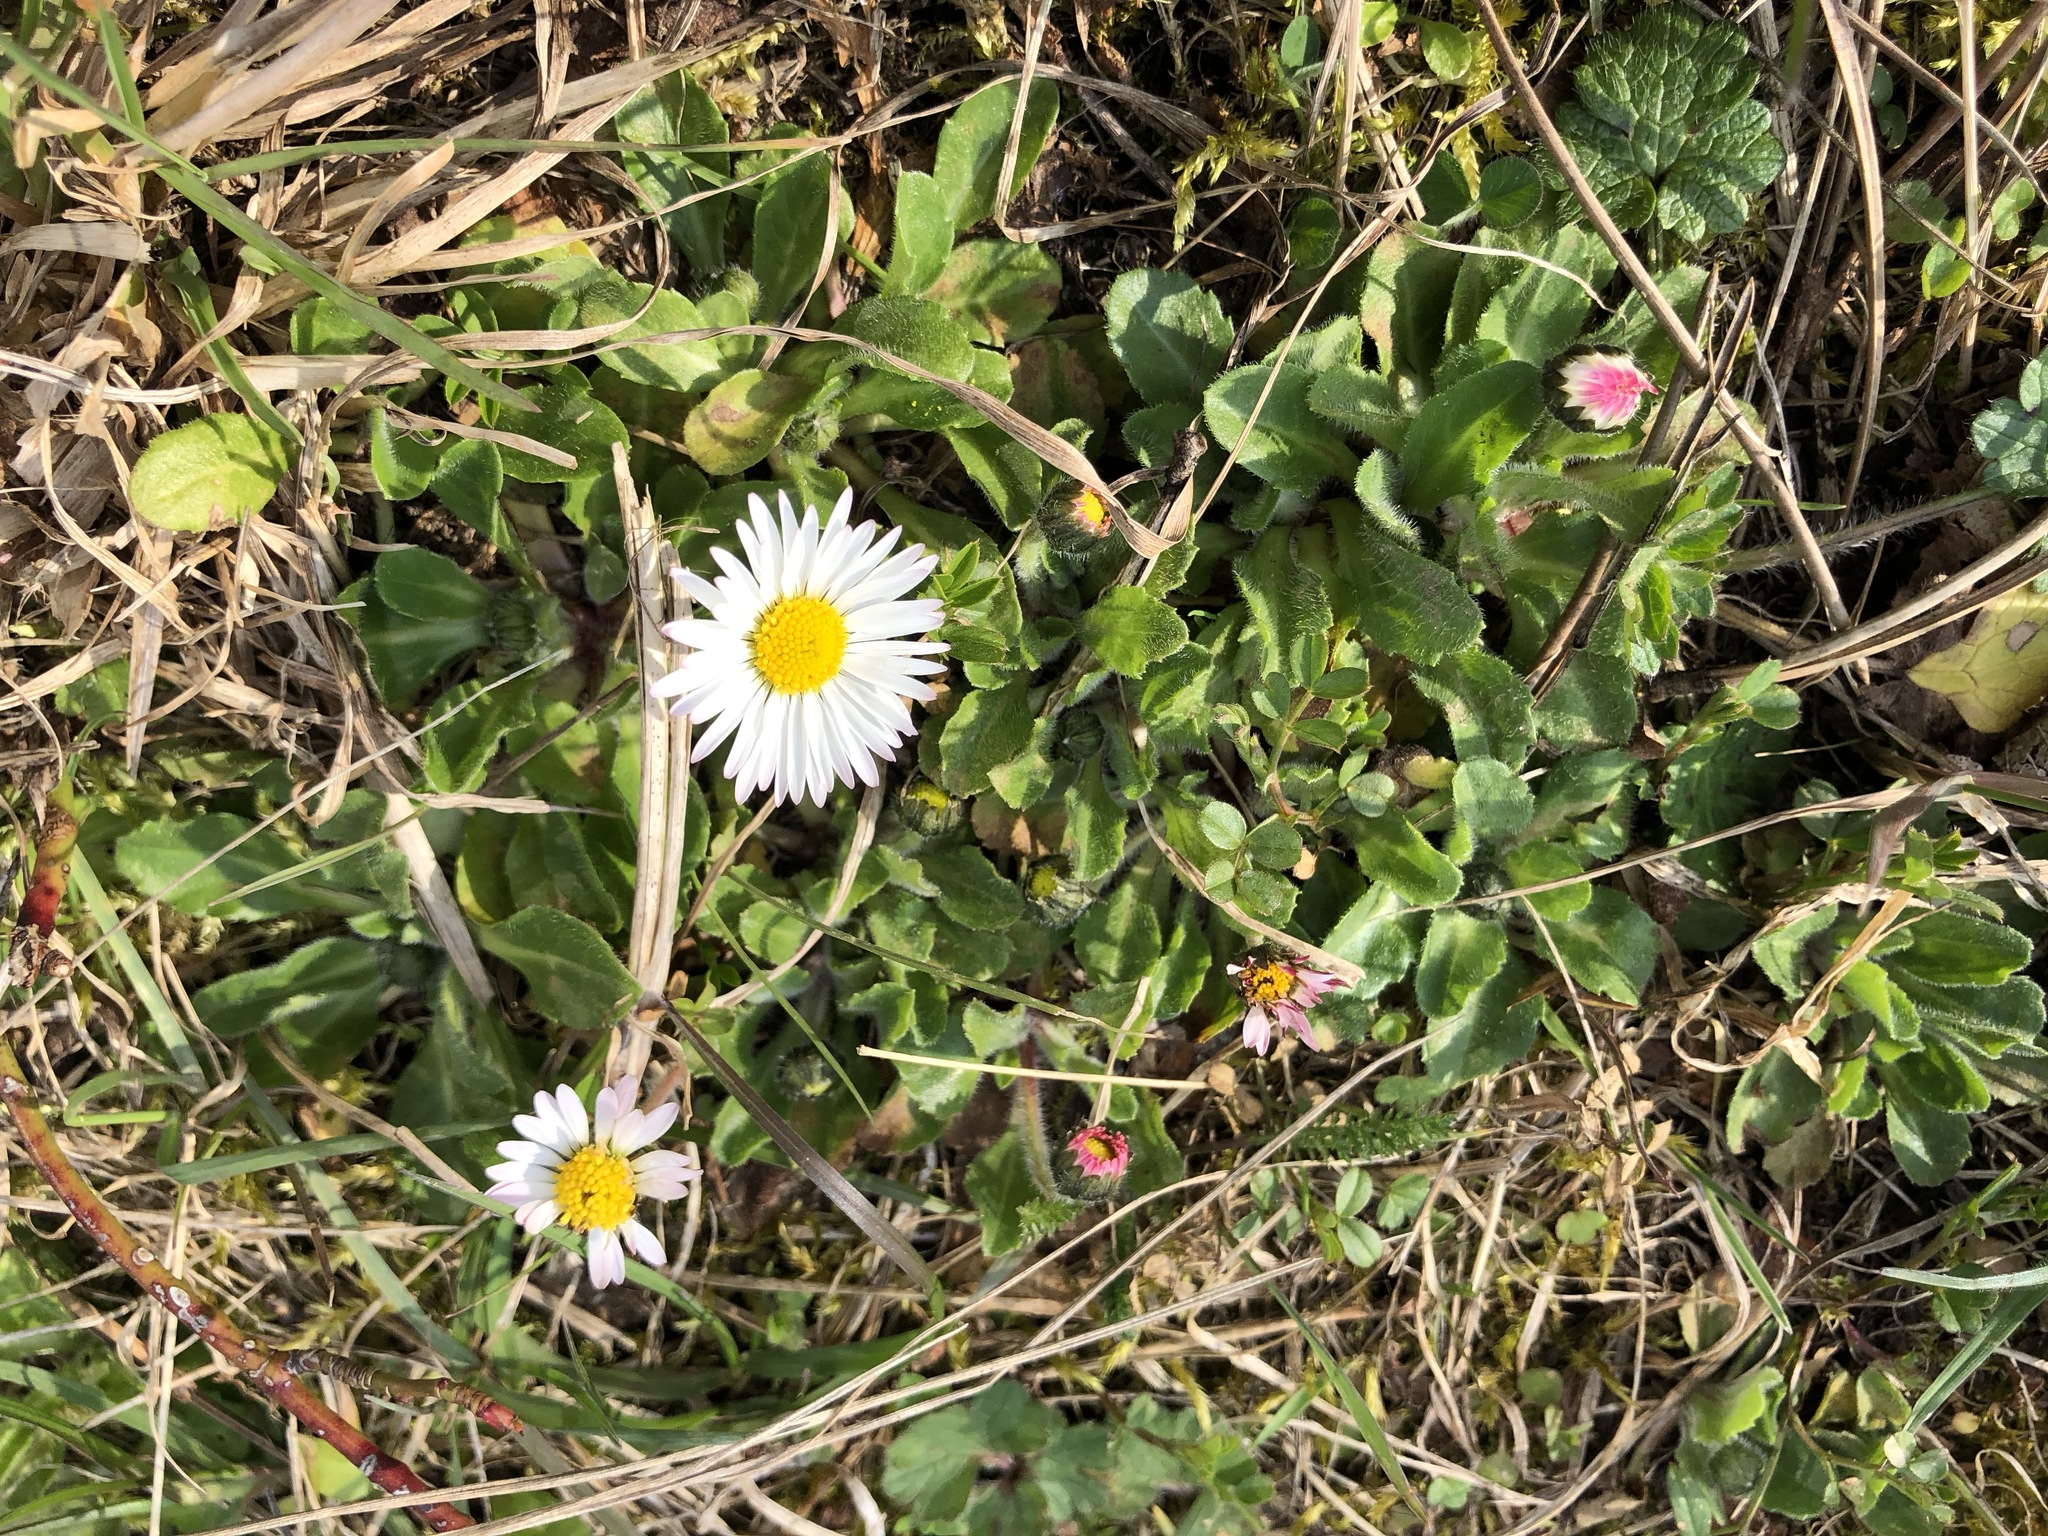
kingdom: Plantae
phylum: Tracheophyta
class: Magnoliopsida
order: Asterales
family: Asteraceae
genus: Bellis
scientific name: Bellis perennis
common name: Lawndaisy
